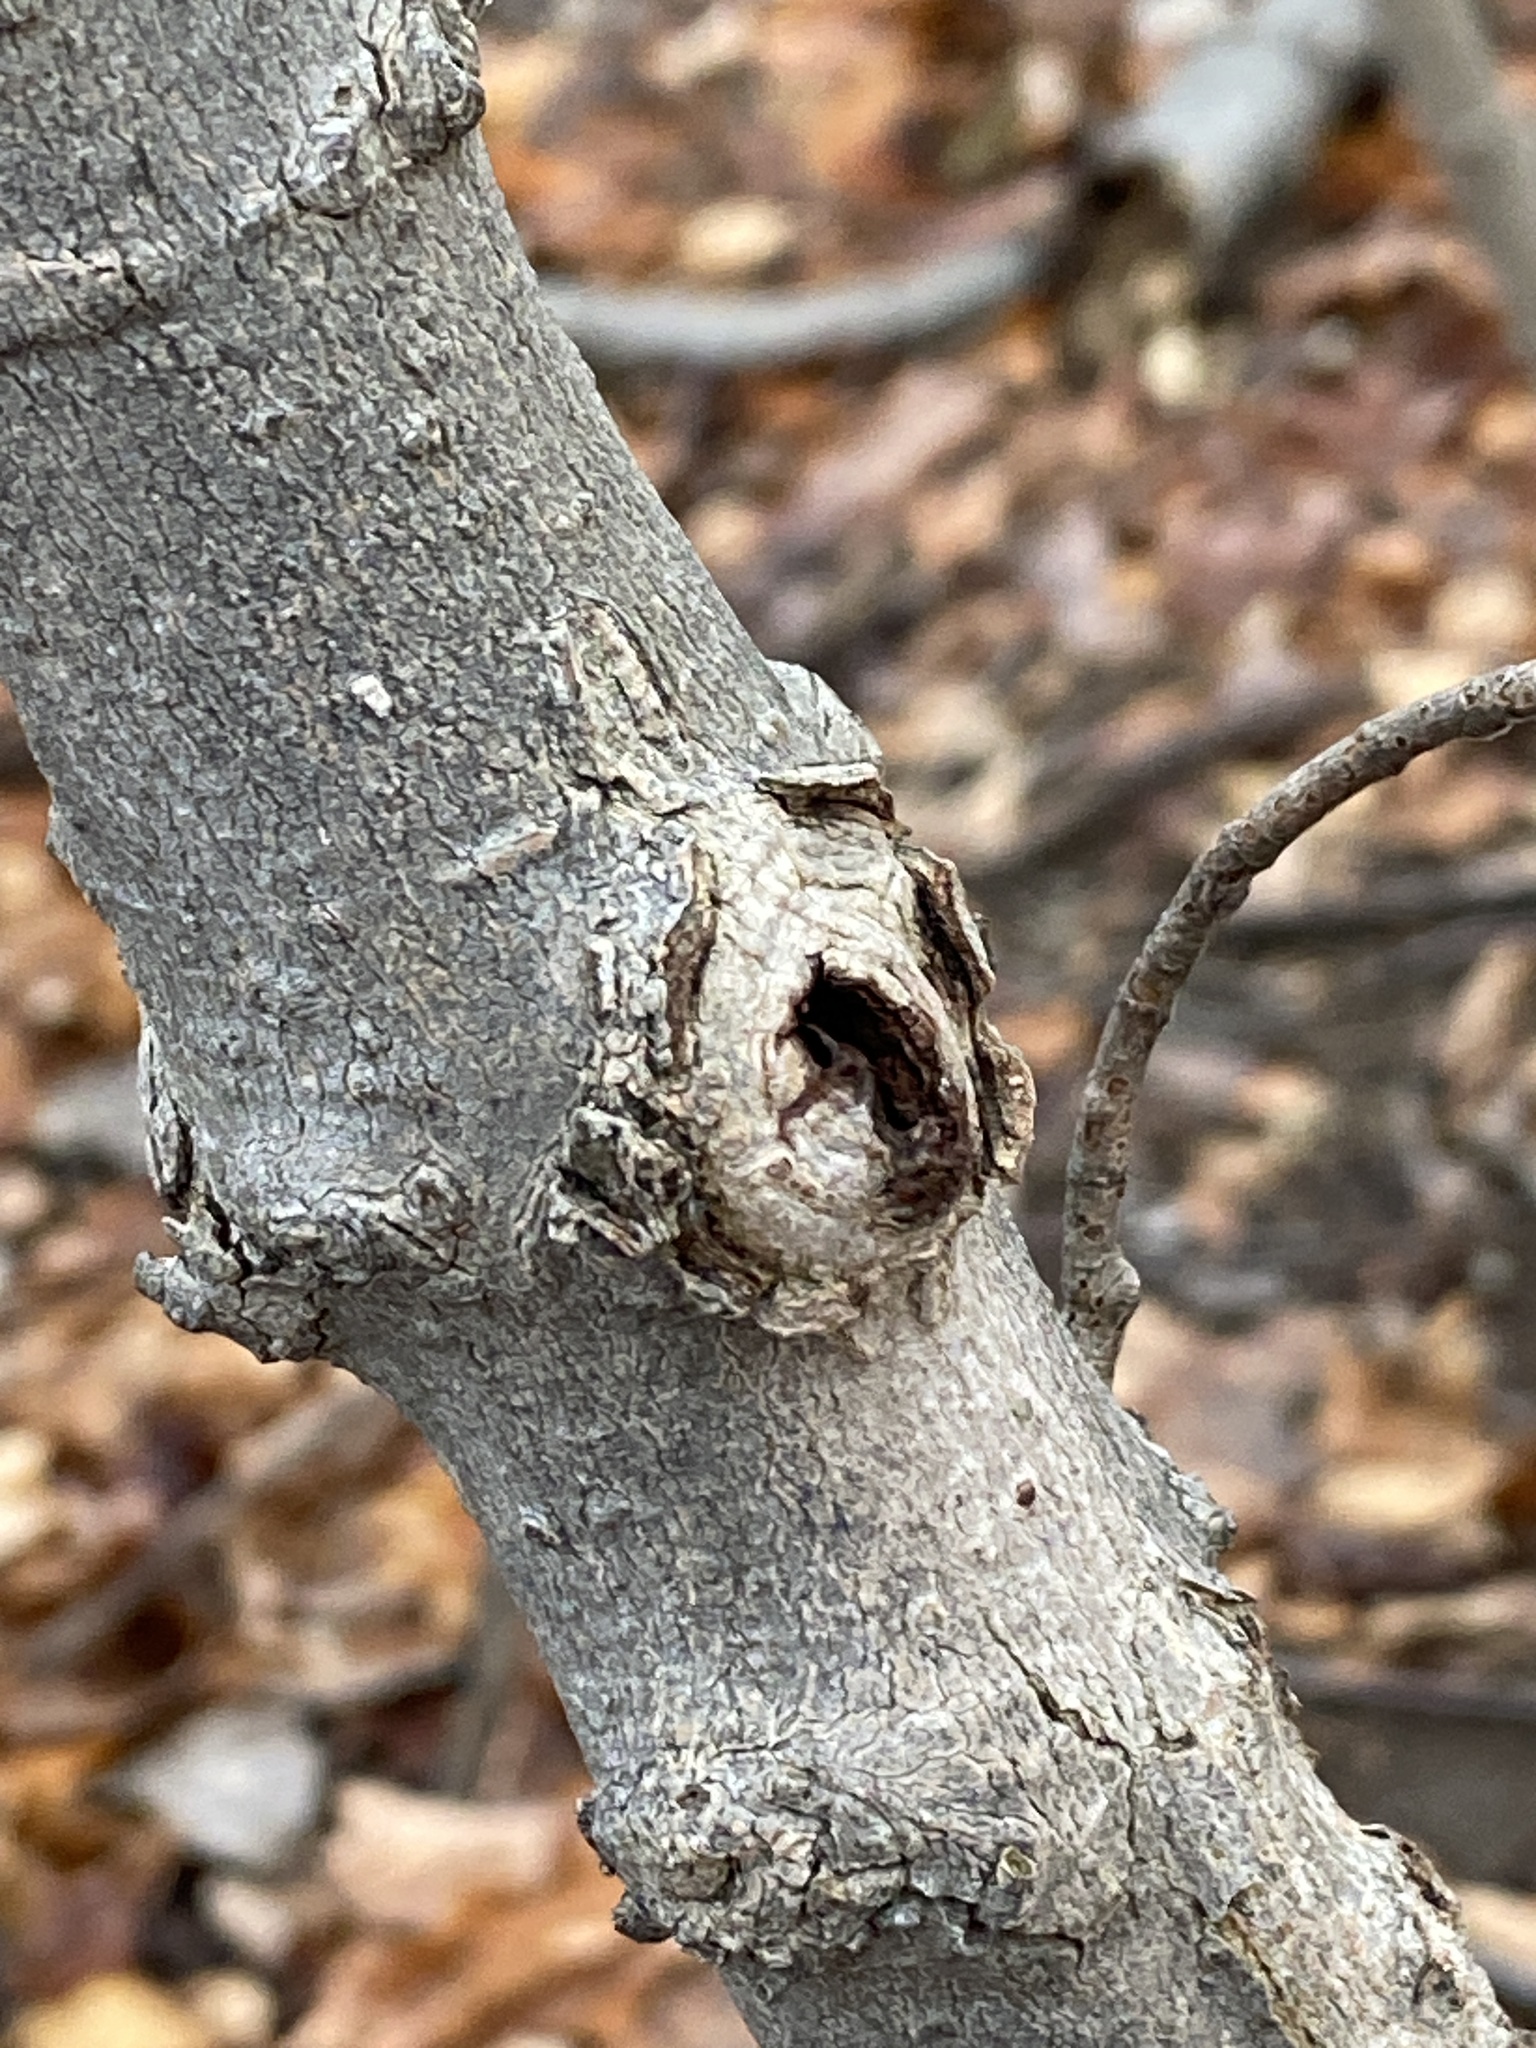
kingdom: Plantae
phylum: Tracheophyta
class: Magnoliopsida
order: Fagales
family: Fagaceae
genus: Fagus
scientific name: Fagus grandifolia
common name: American beech
